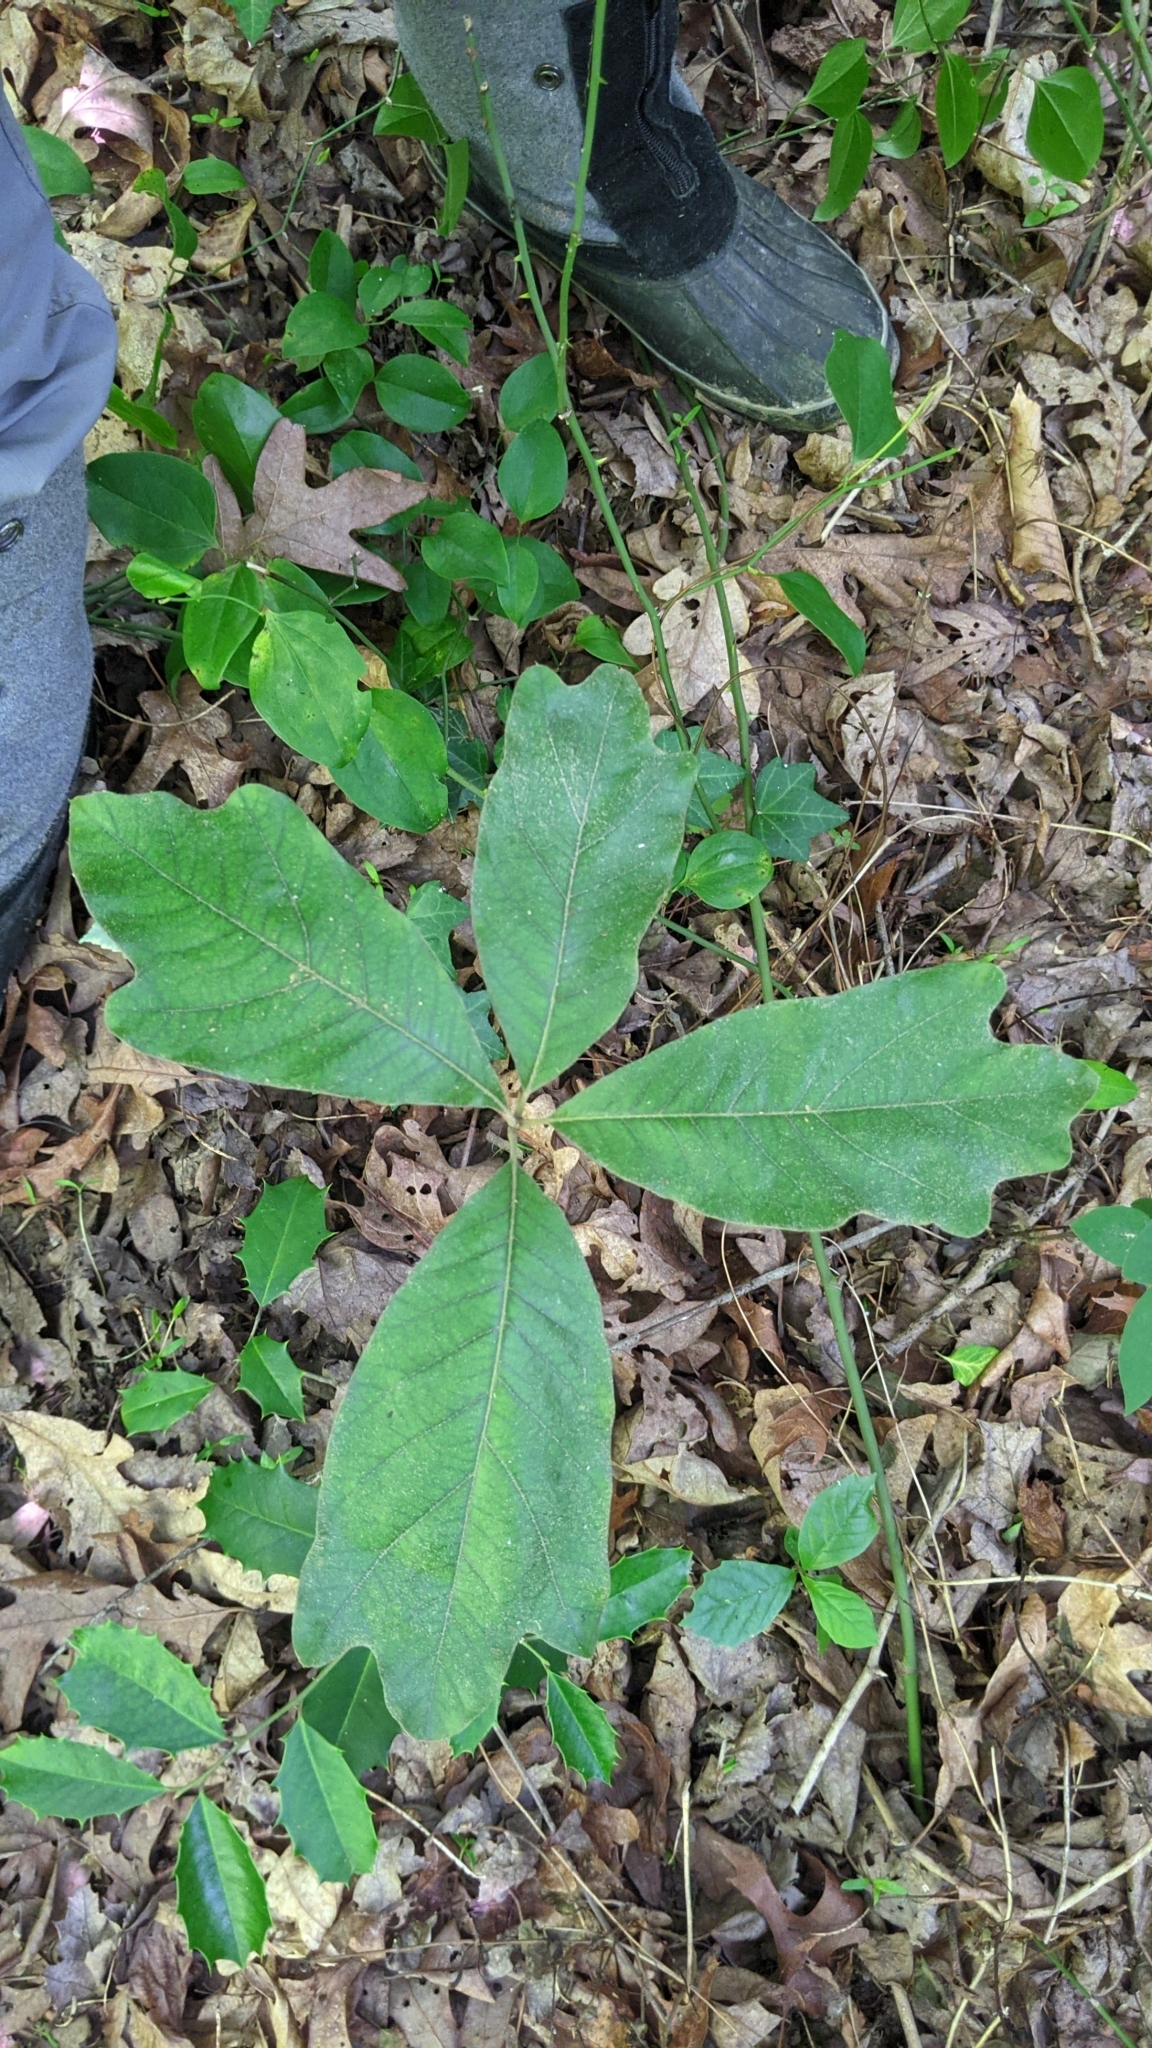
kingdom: Plantae
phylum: Tracheophyta
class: Magnoliopsida
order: Fagales
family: Fagaceae
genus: Quercus
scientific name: Quercus falcata
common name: Southern red oak
